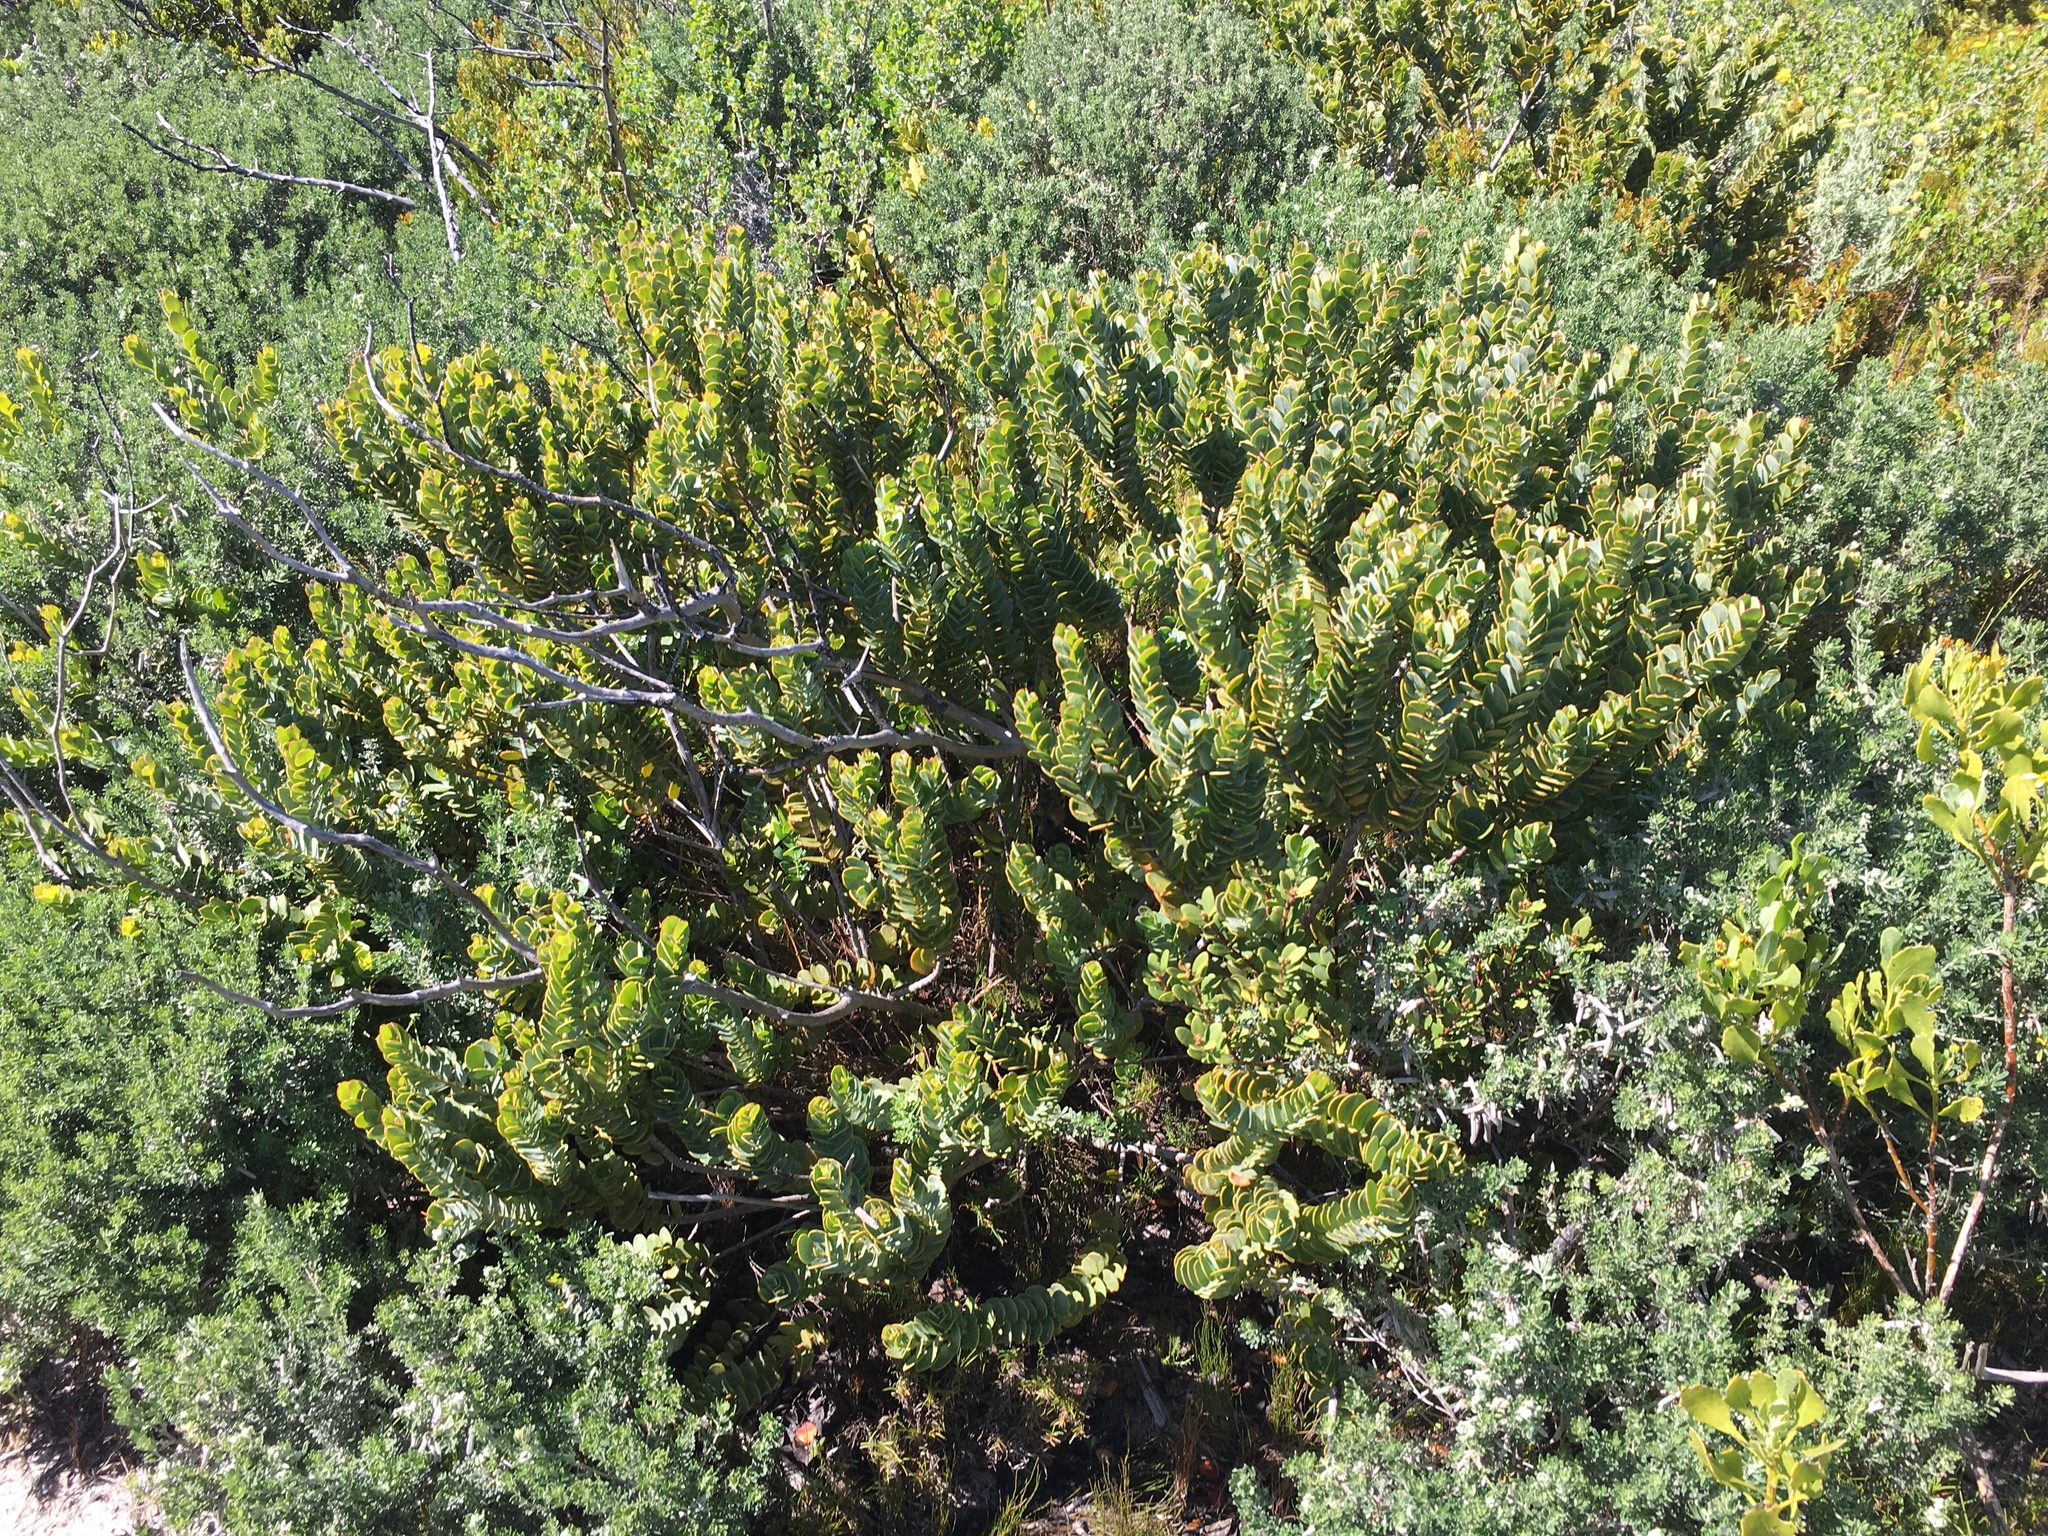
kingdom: Plantae
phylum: Tracheophyta
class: Magnoliopsida
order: Santalales
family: Santalaceae
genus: Osyris
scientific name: Osyris compressa
